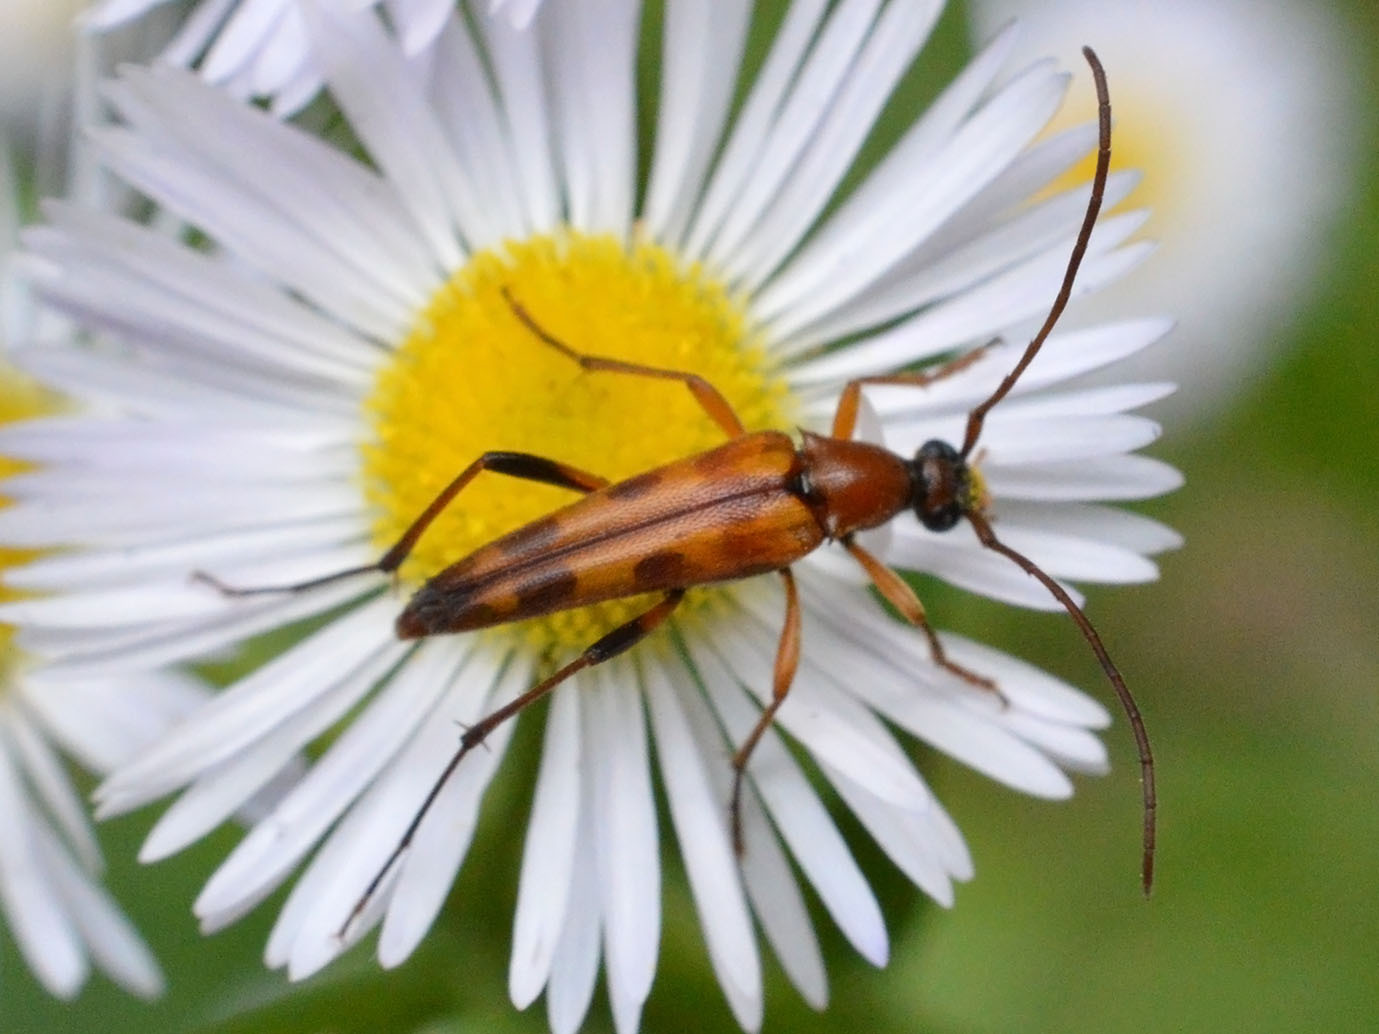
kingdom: Animalia
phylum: Arthropoda
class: Insecta
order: Coleoptera
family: Cerambycidae
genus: Stenurella
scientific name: Stenurella septempunctata
